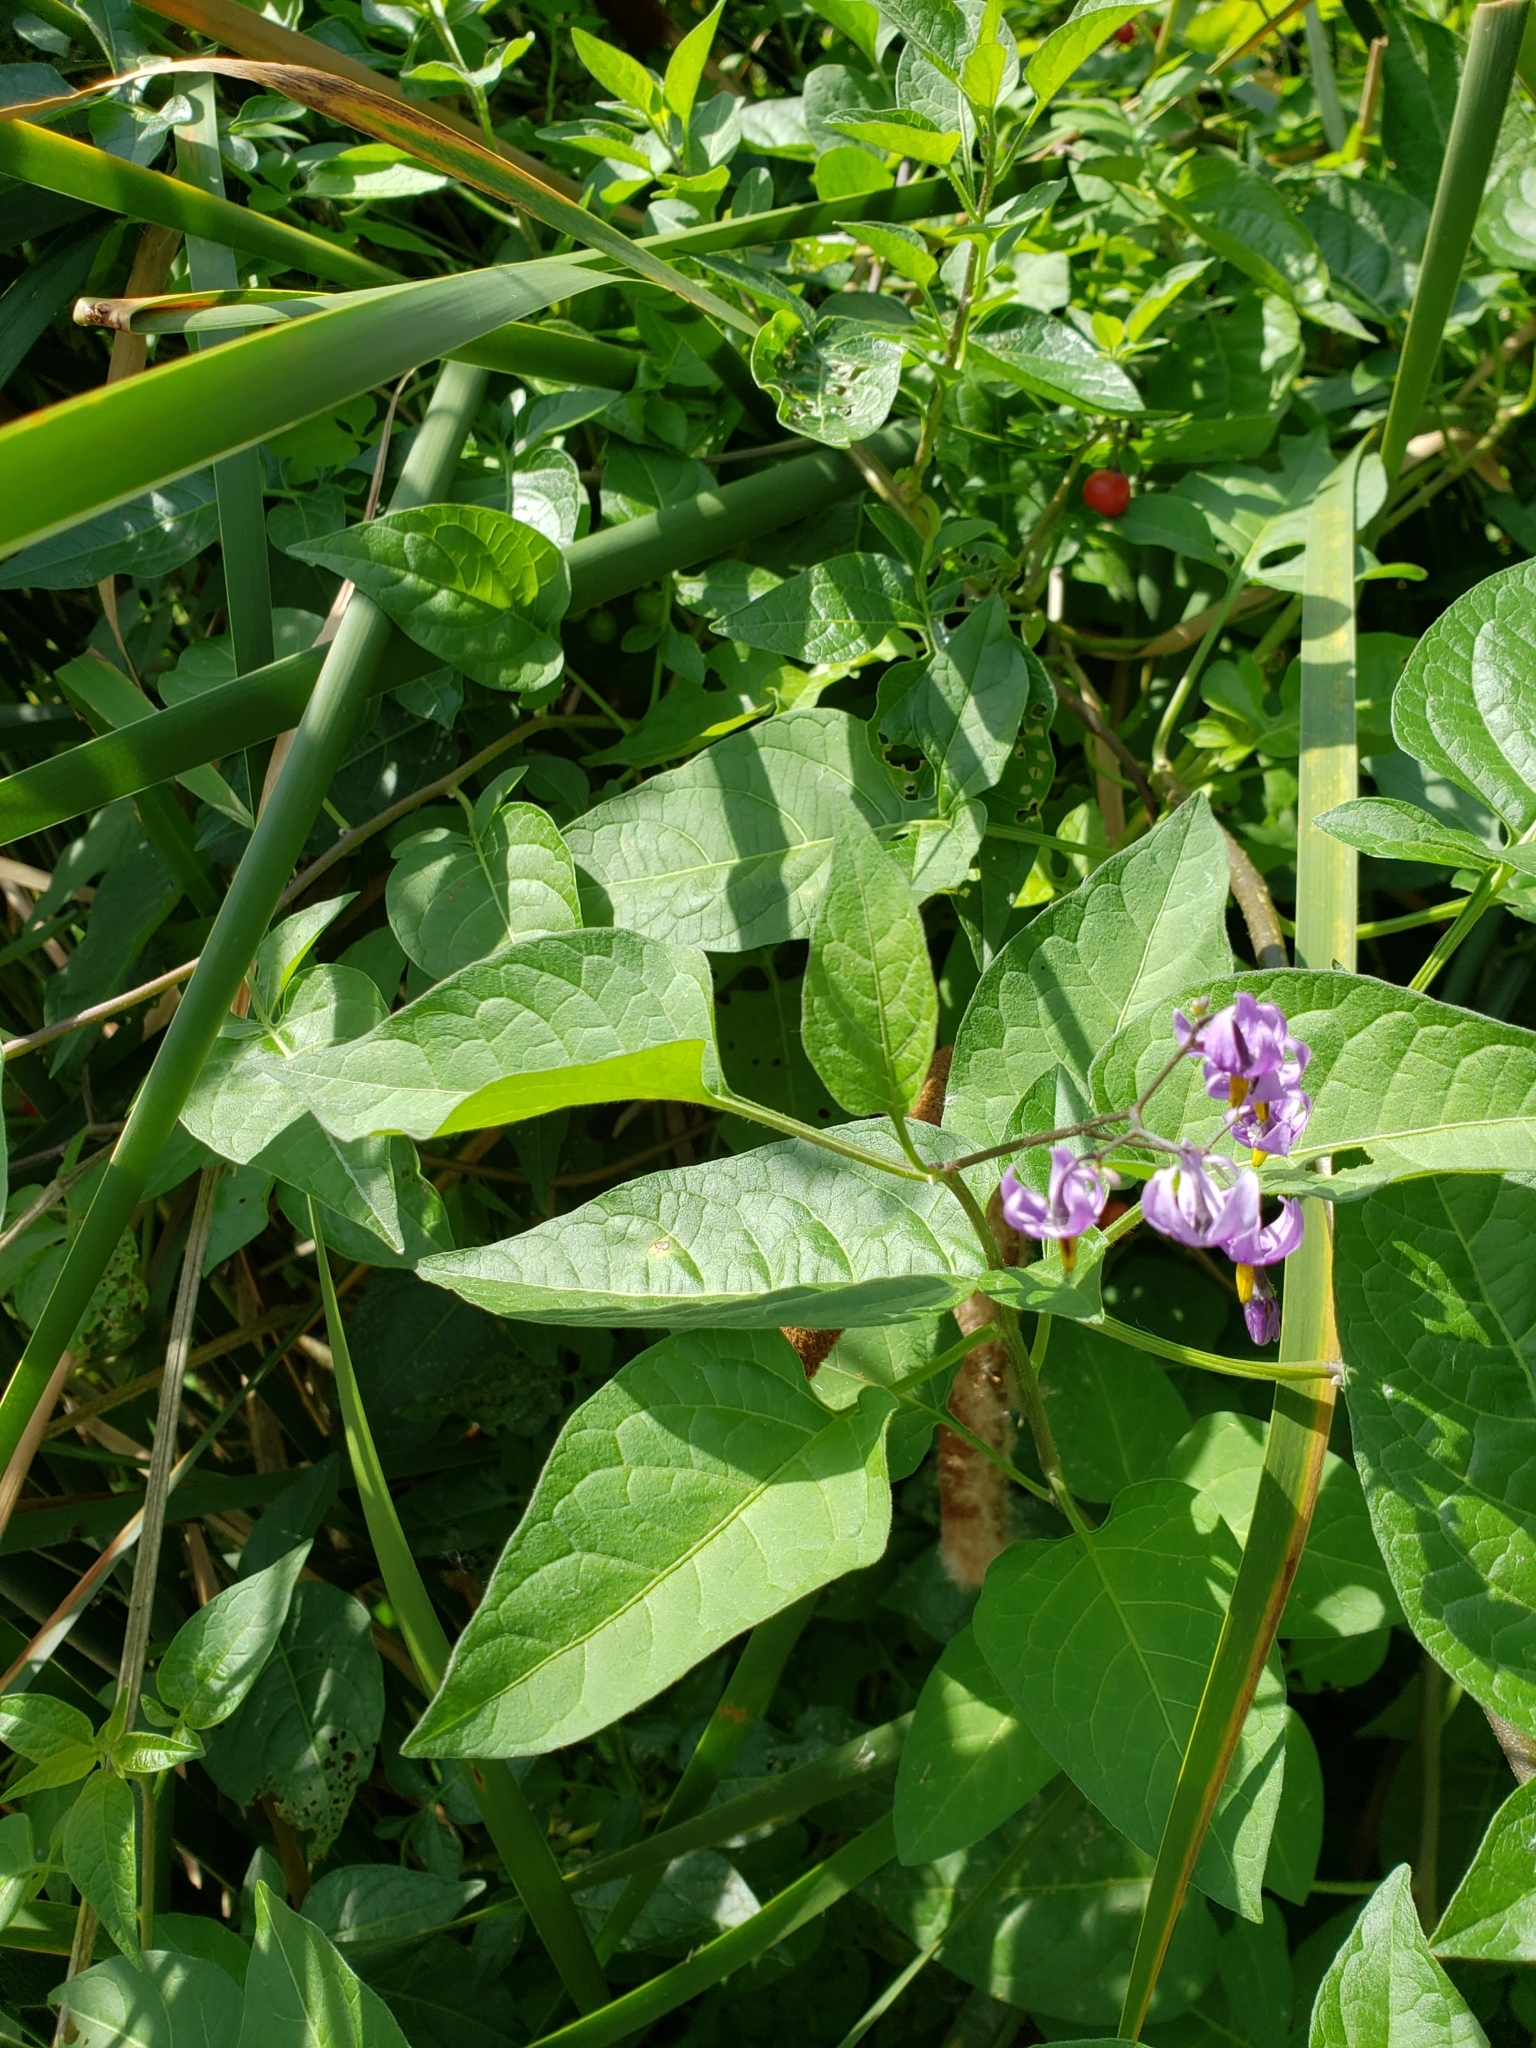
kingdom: Plantae
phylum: Tracheophyta
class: Magnoliopsida
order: Solanales
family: Solanaceae
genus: Solanum
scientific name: Solanum dulcamara
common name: Climbing nightshade
